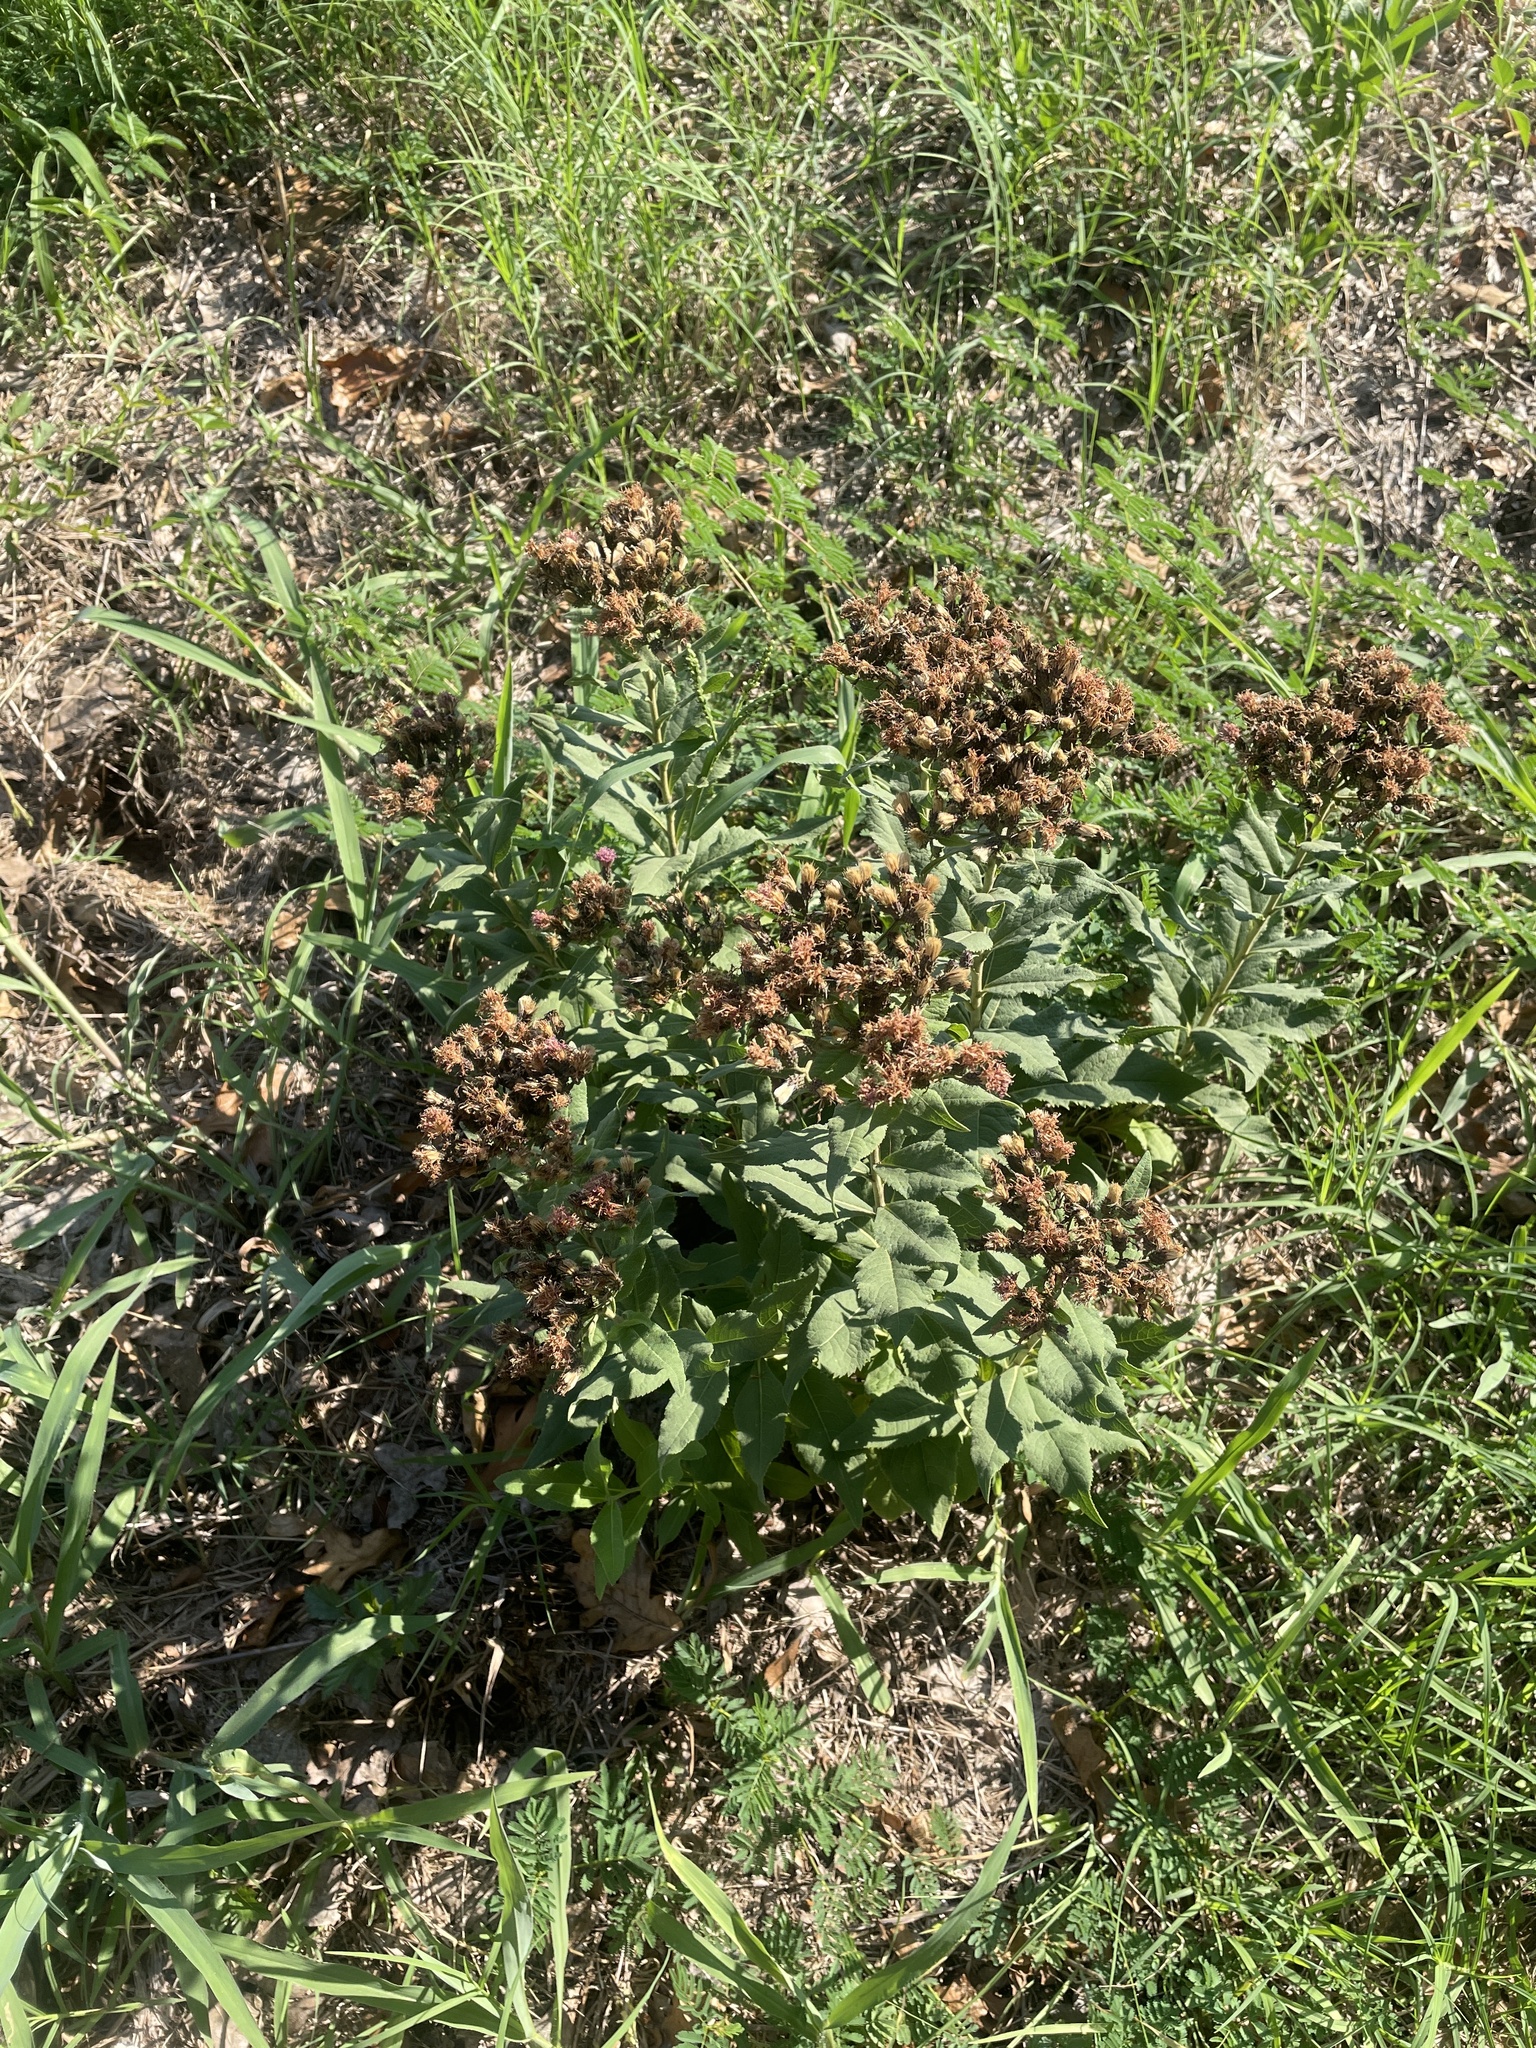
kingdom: Plantae
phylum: Tracheophyta
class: Magnoliopsida
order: Asterales
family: Asteraceae
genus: Vernonia
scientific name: Vernonia baldwinii
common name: Western ironweed
